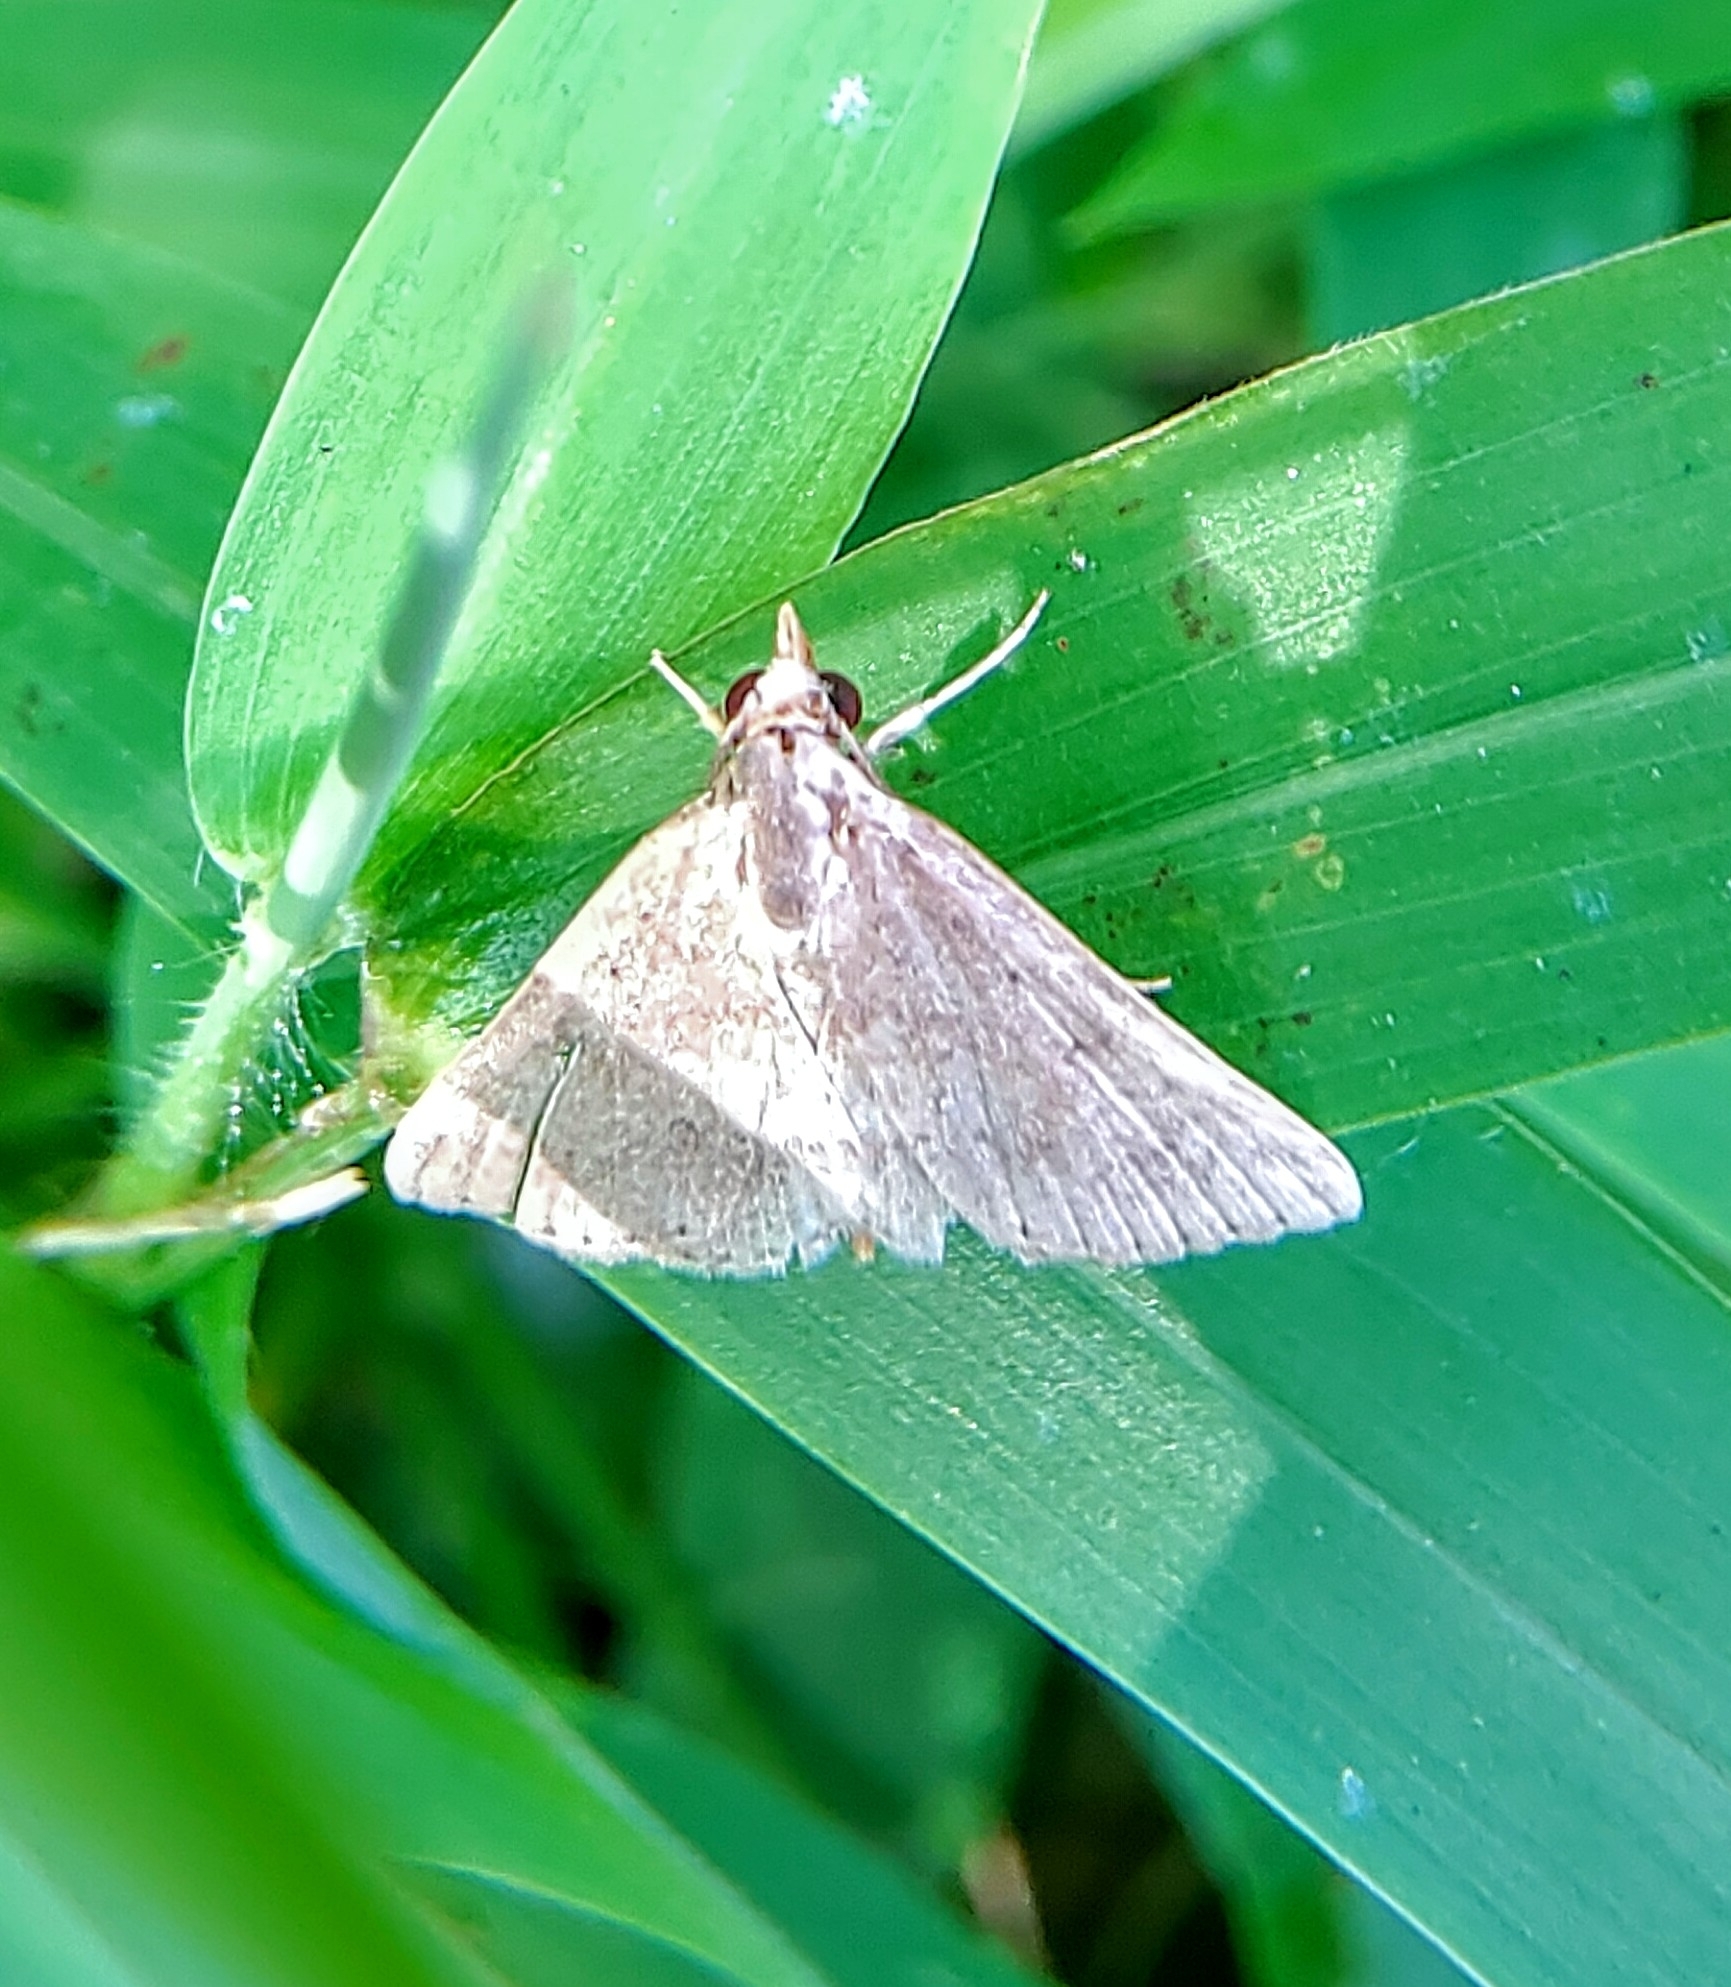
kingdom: Animalia
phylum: Arthropoda
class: Insecta
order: Lepidoptera
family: Erebidae
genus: Gesonia
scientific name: Gesonia obeditalis
